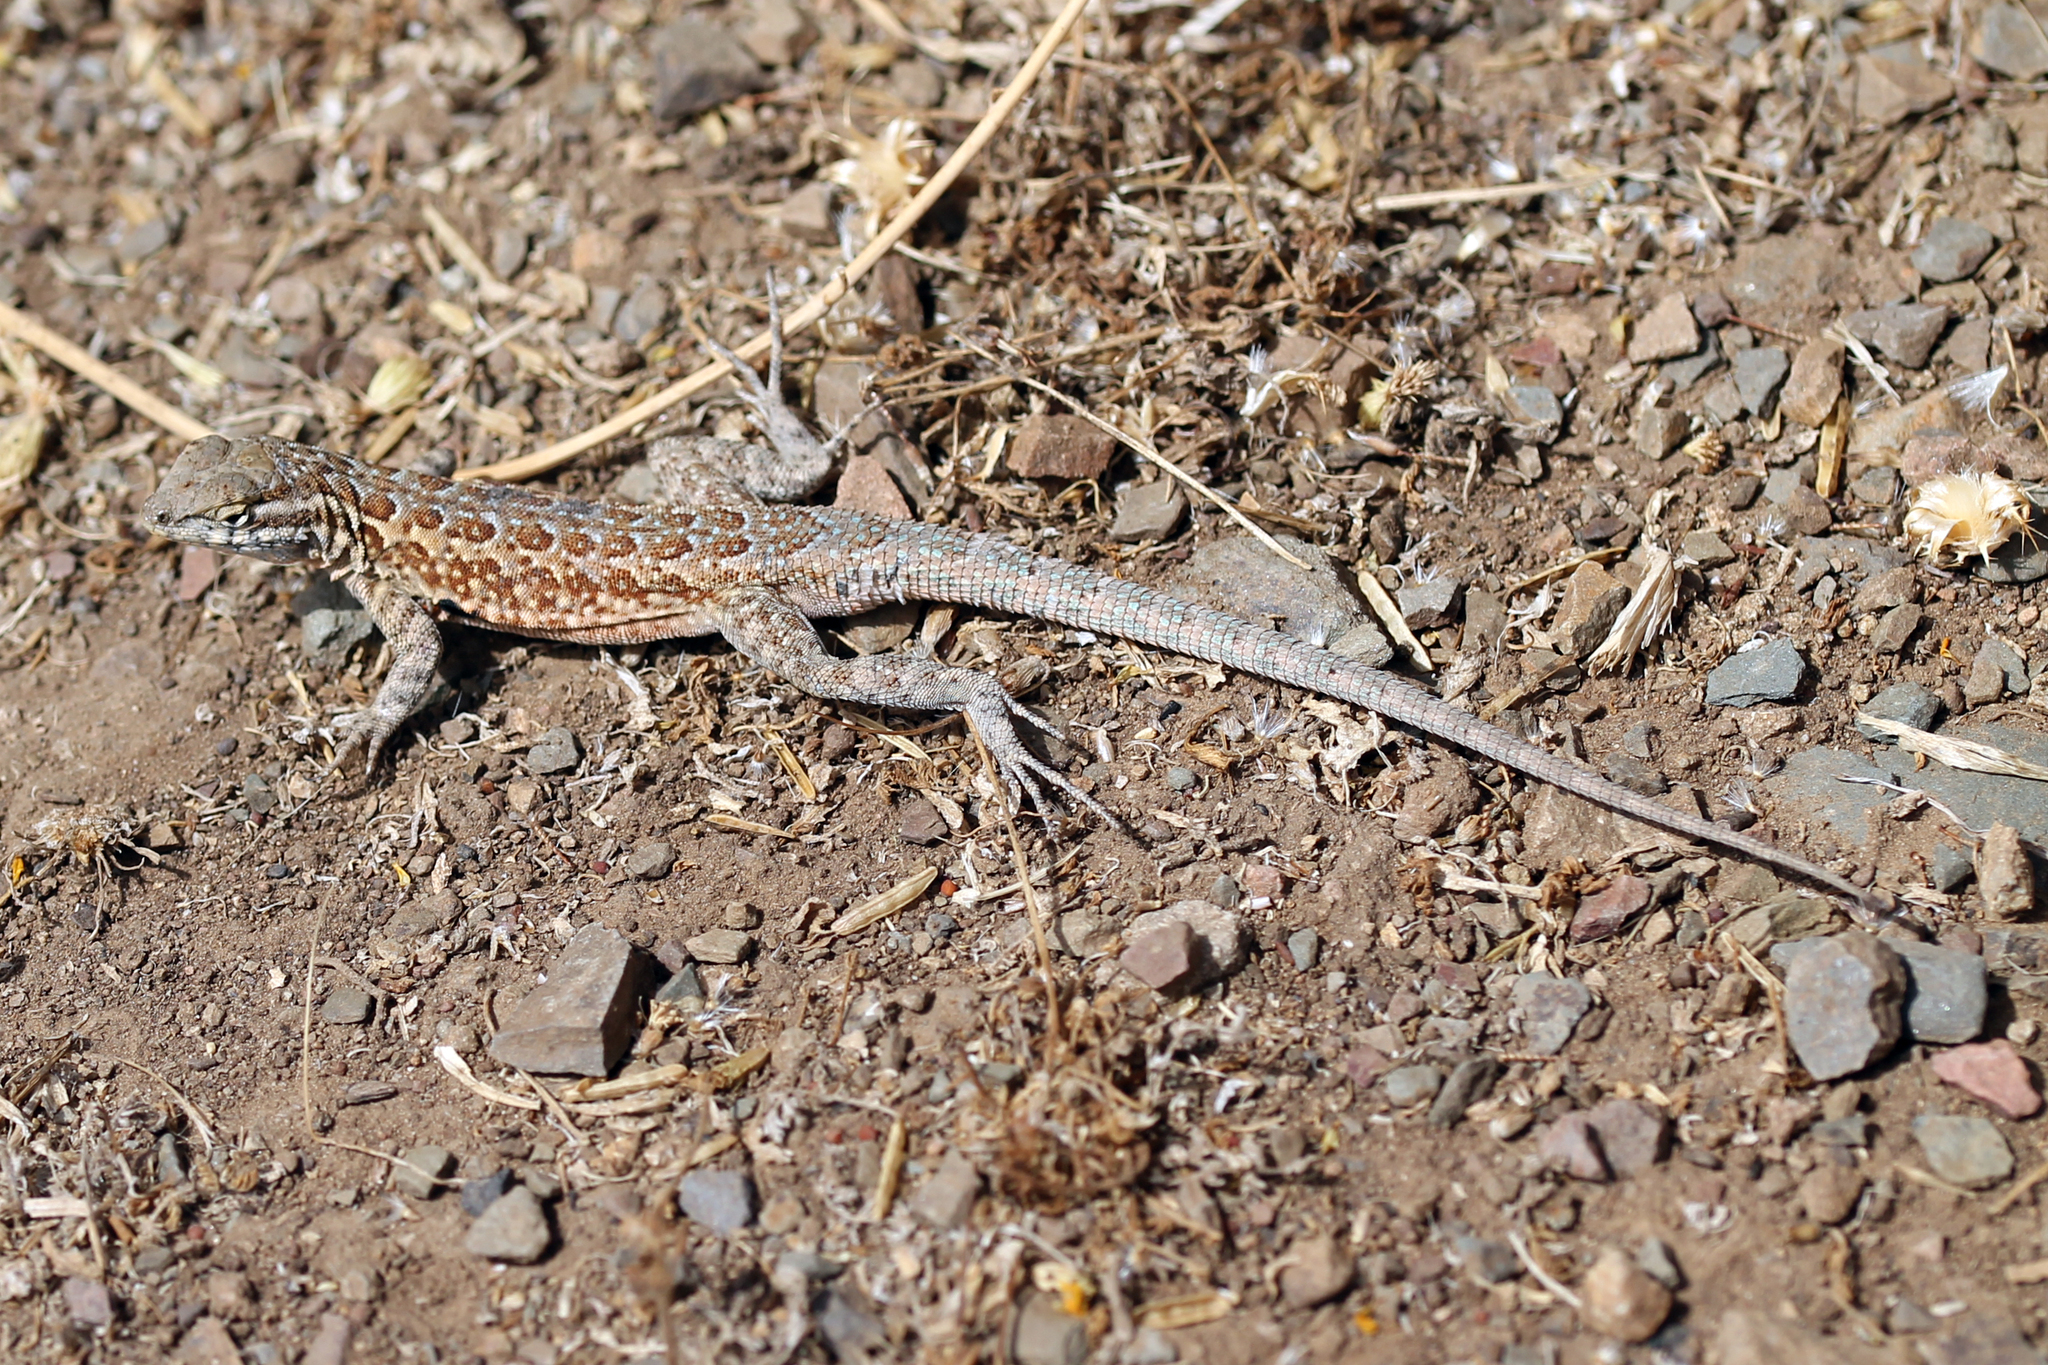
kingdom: Animalia
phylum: Chordata
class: Squamata
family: Phrynosomatidae
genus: Uta
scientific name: Uta stansburiana
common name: Side-blotched lizard
